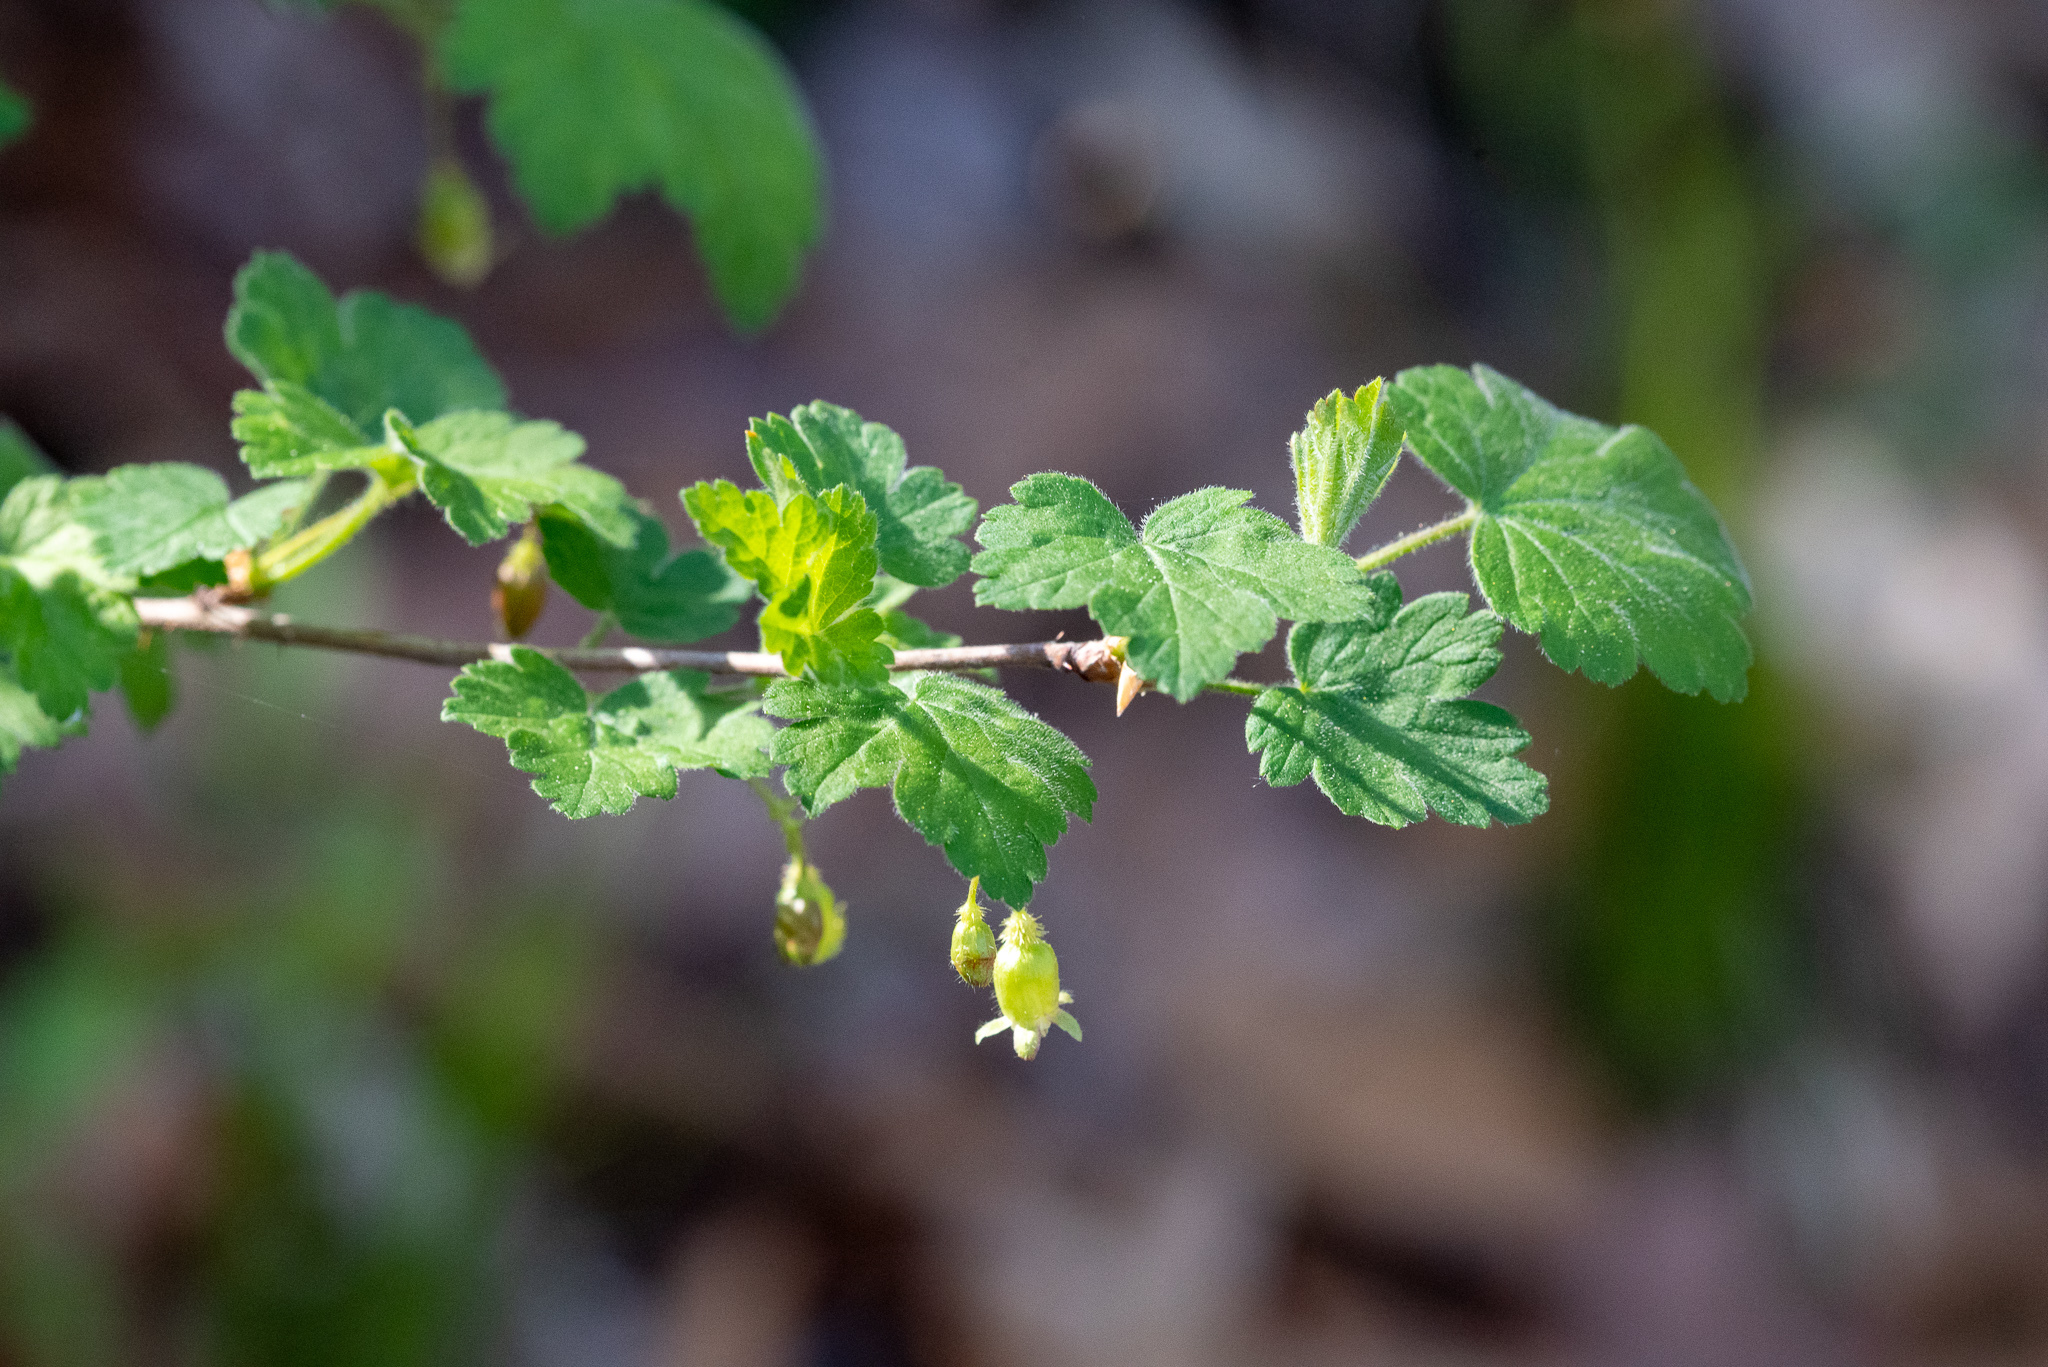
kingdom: Plantae
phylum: Tracheophyta
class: Magnoliopsida
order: Saxifragales
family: Grossulariaceae
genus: Ribes
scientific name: Ribes cynosbati
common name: American gooseberry
